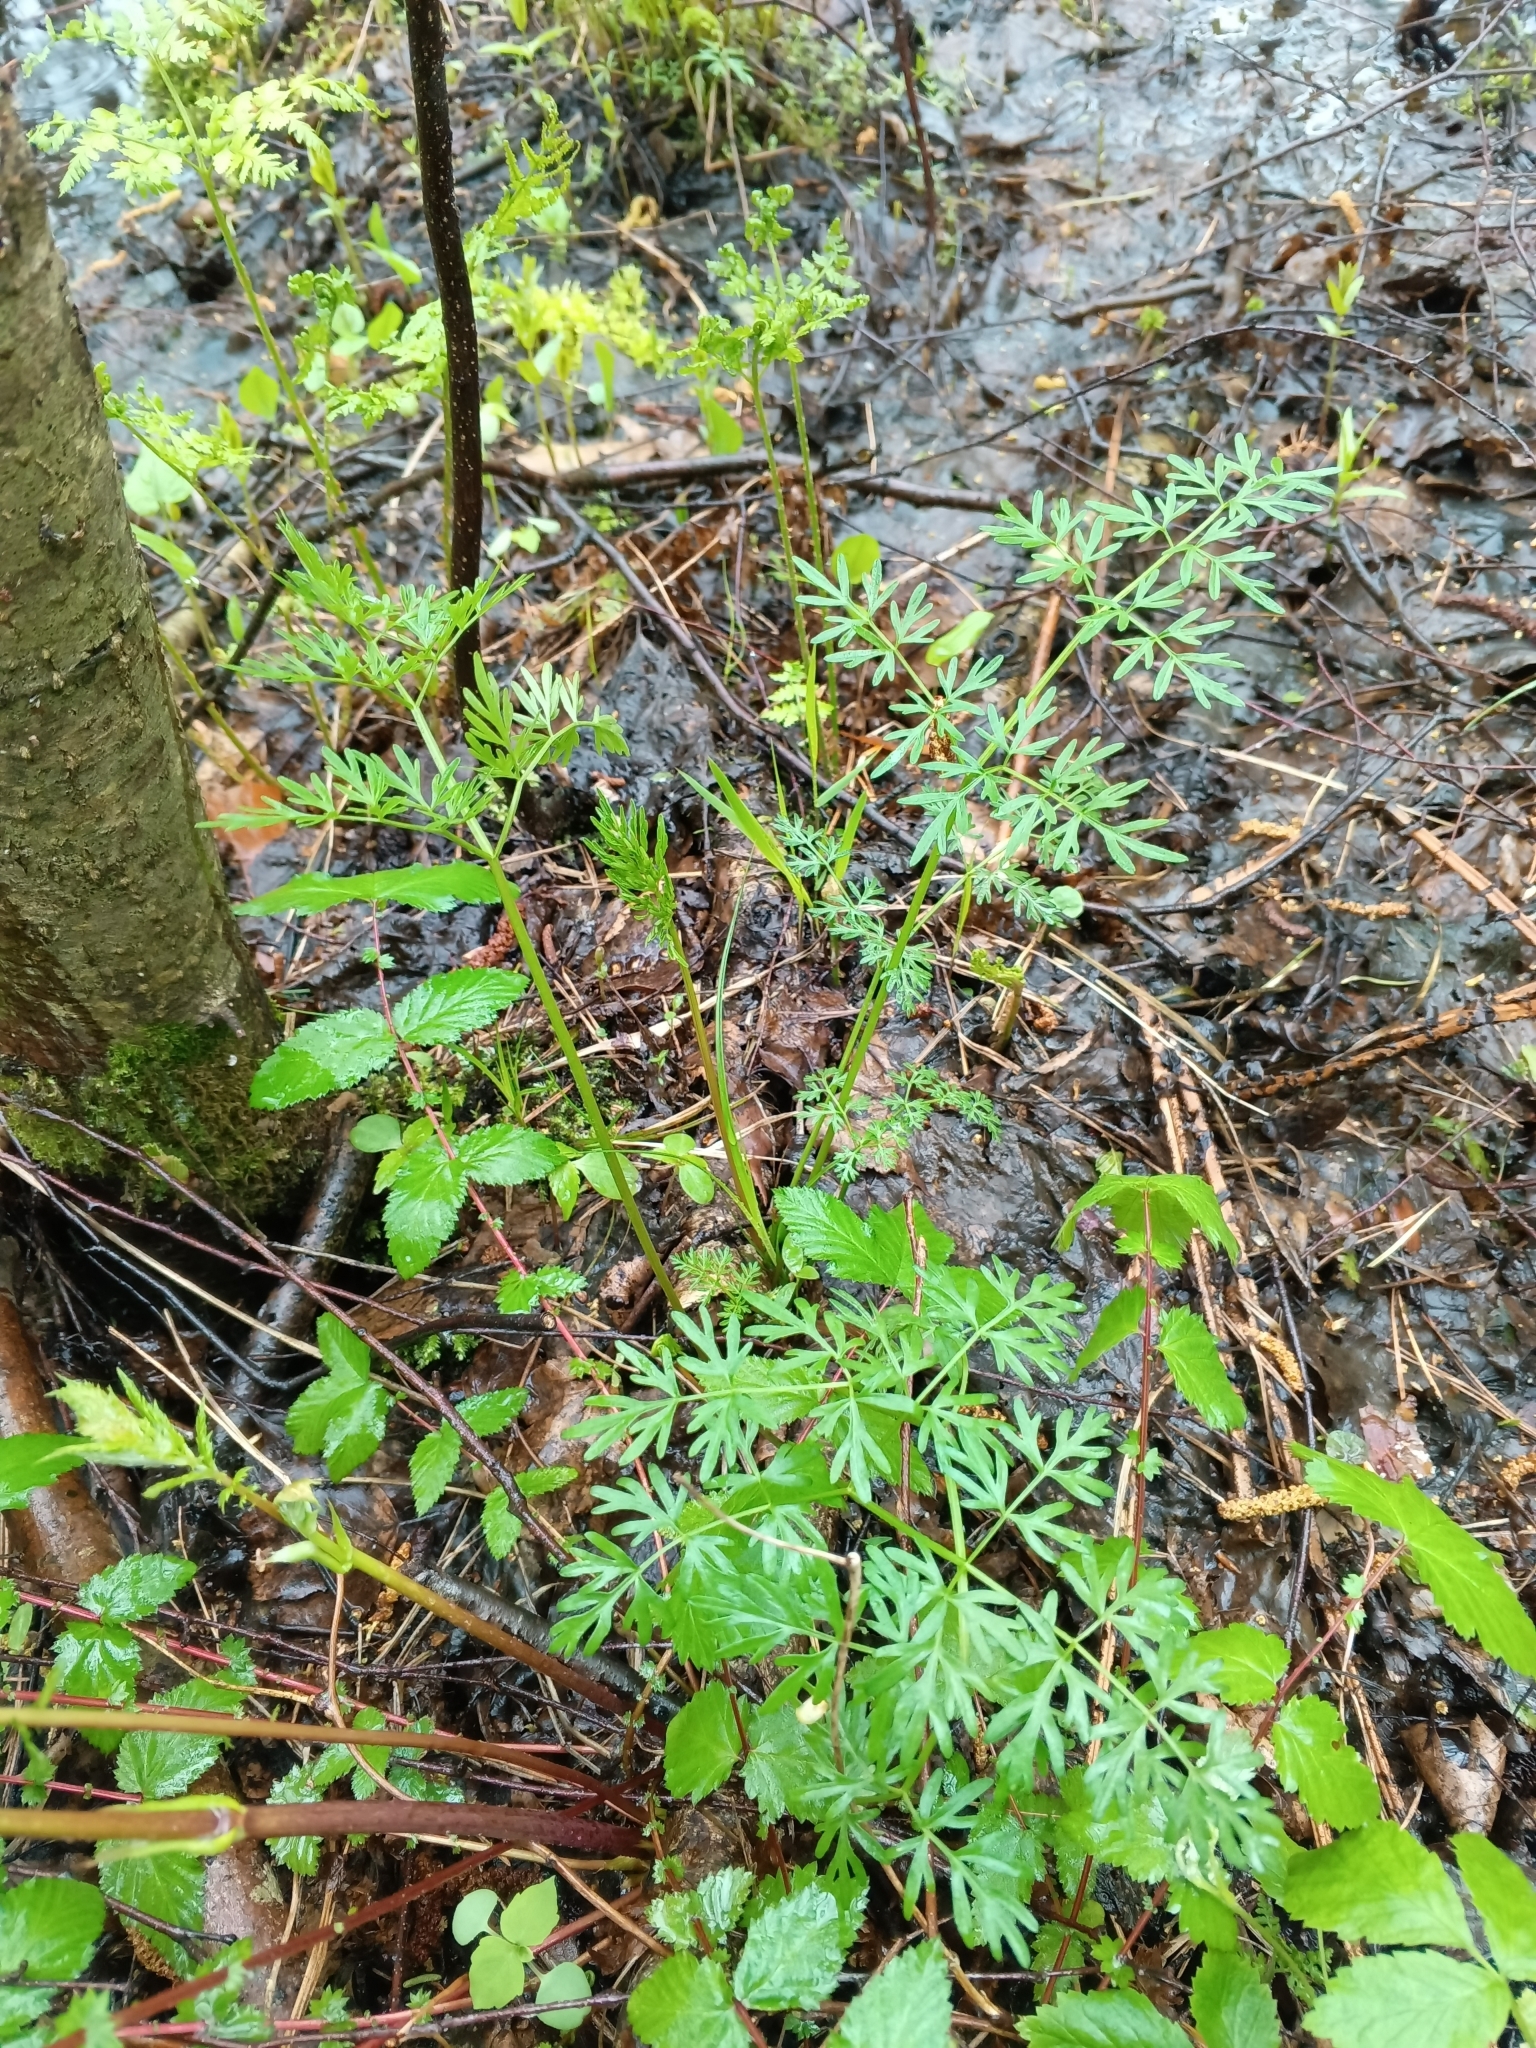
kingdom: Plantae
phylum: Tracheophyta
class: Magnoliopsida
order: Apiales
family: Apiaceae
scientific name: Apiaceae
